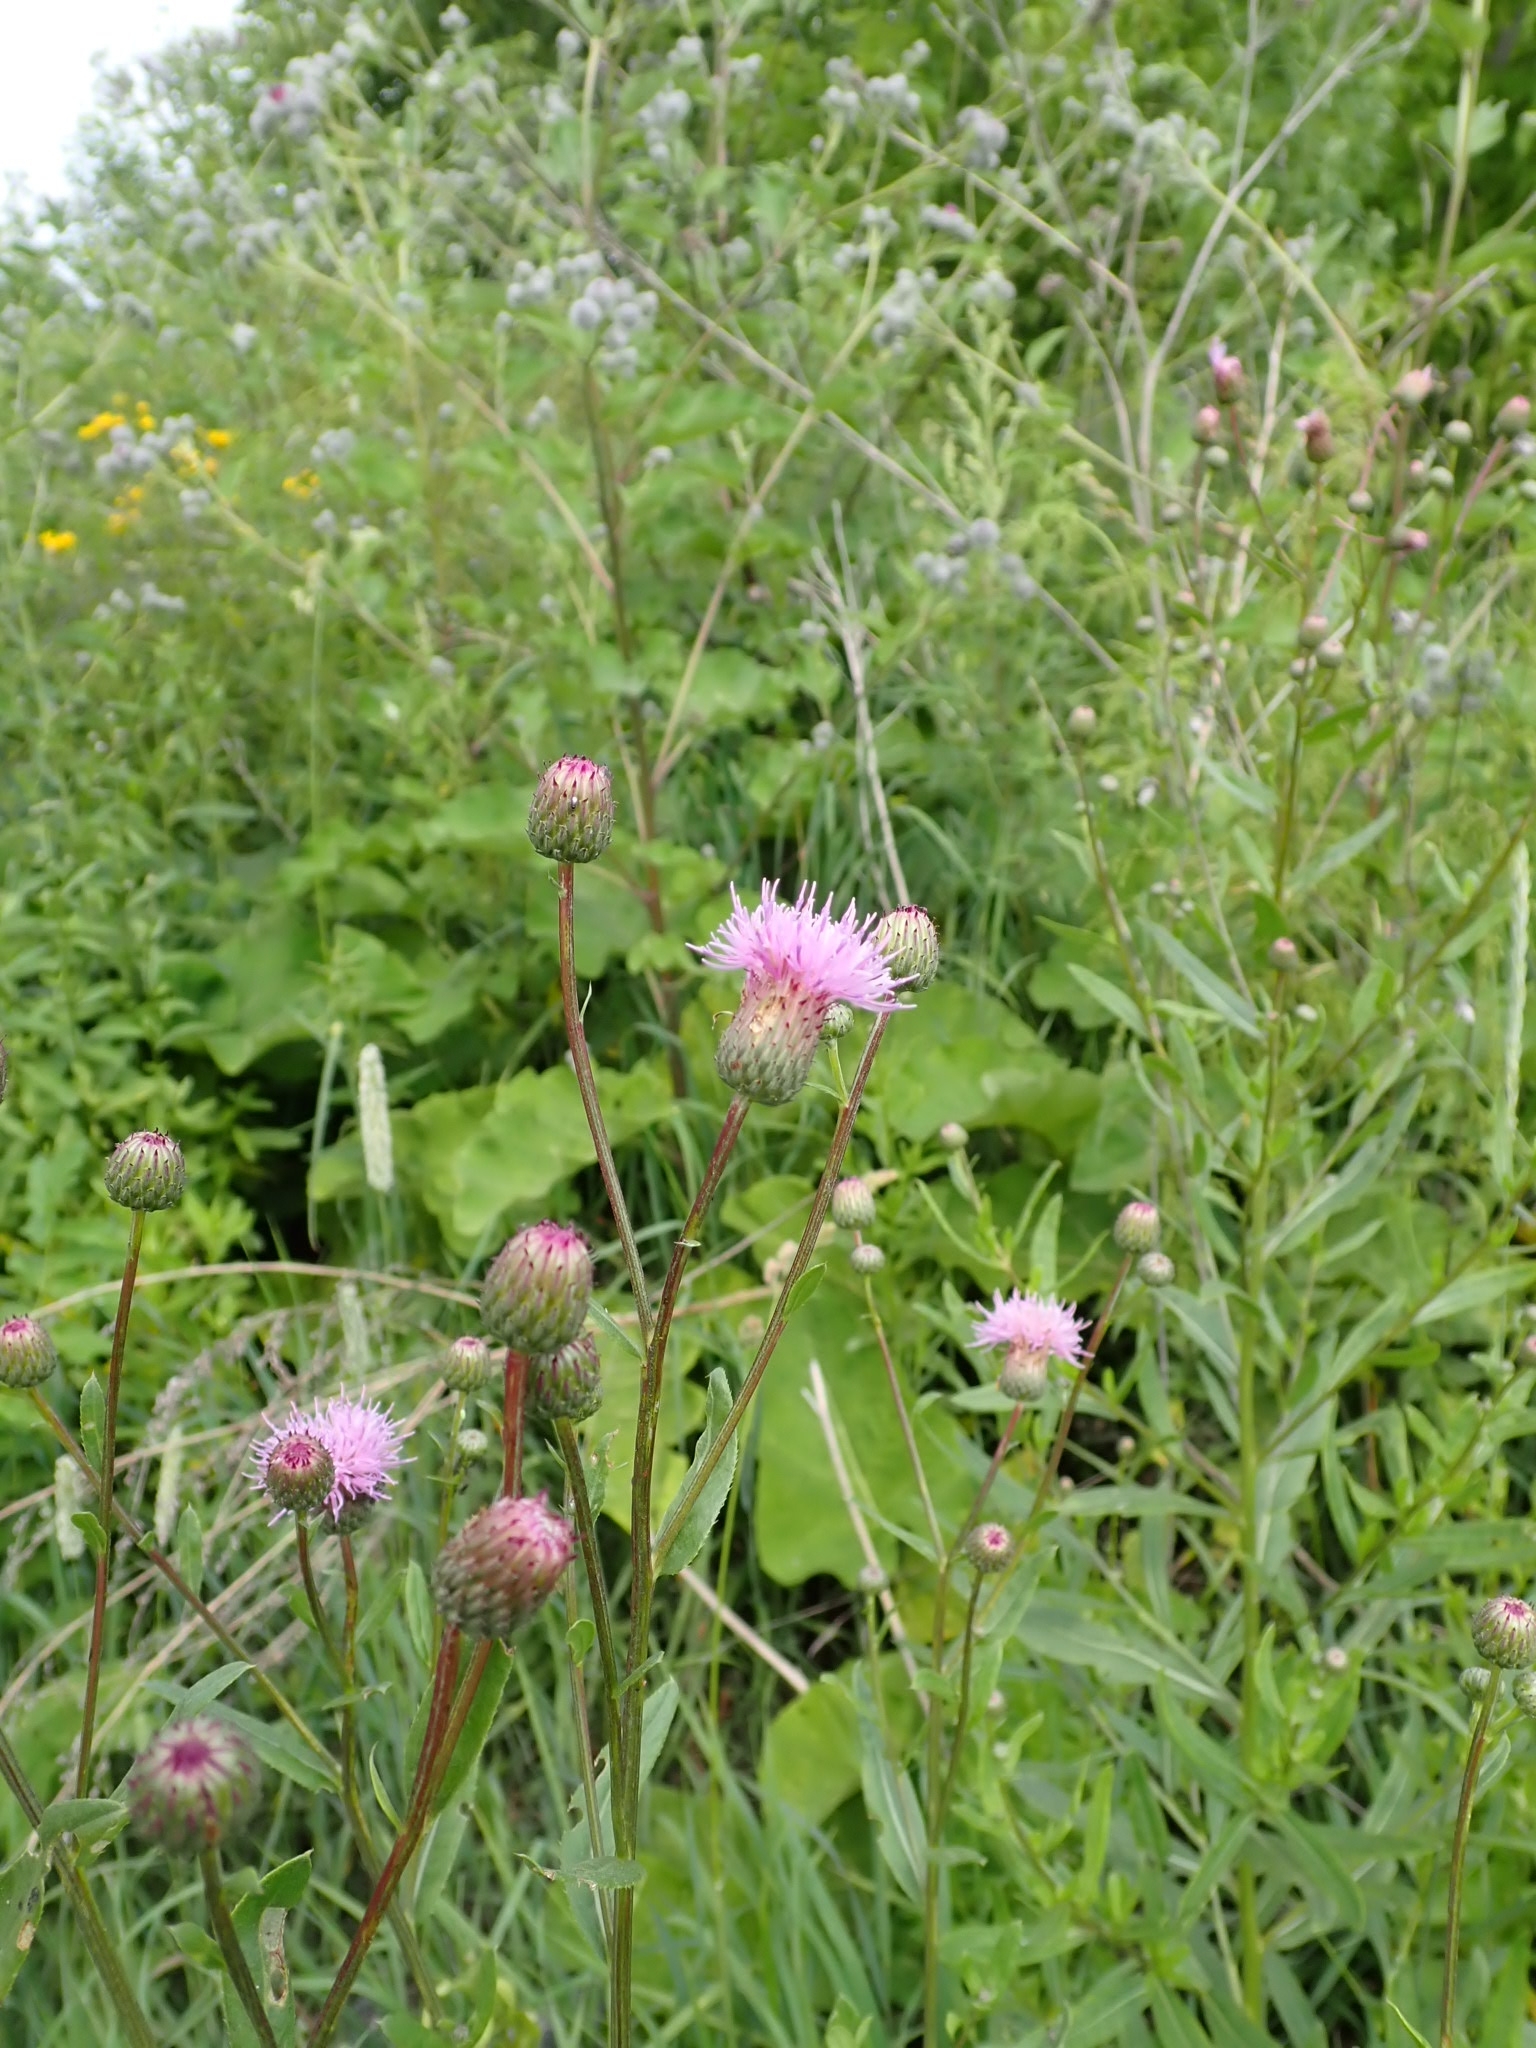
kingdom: Plantae
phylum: Tracheophyta
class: Magnoliopsida
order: Asterales
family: Asteraceae
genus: Cirsium
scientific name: Cirsium arvense
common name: Creeping thistle
